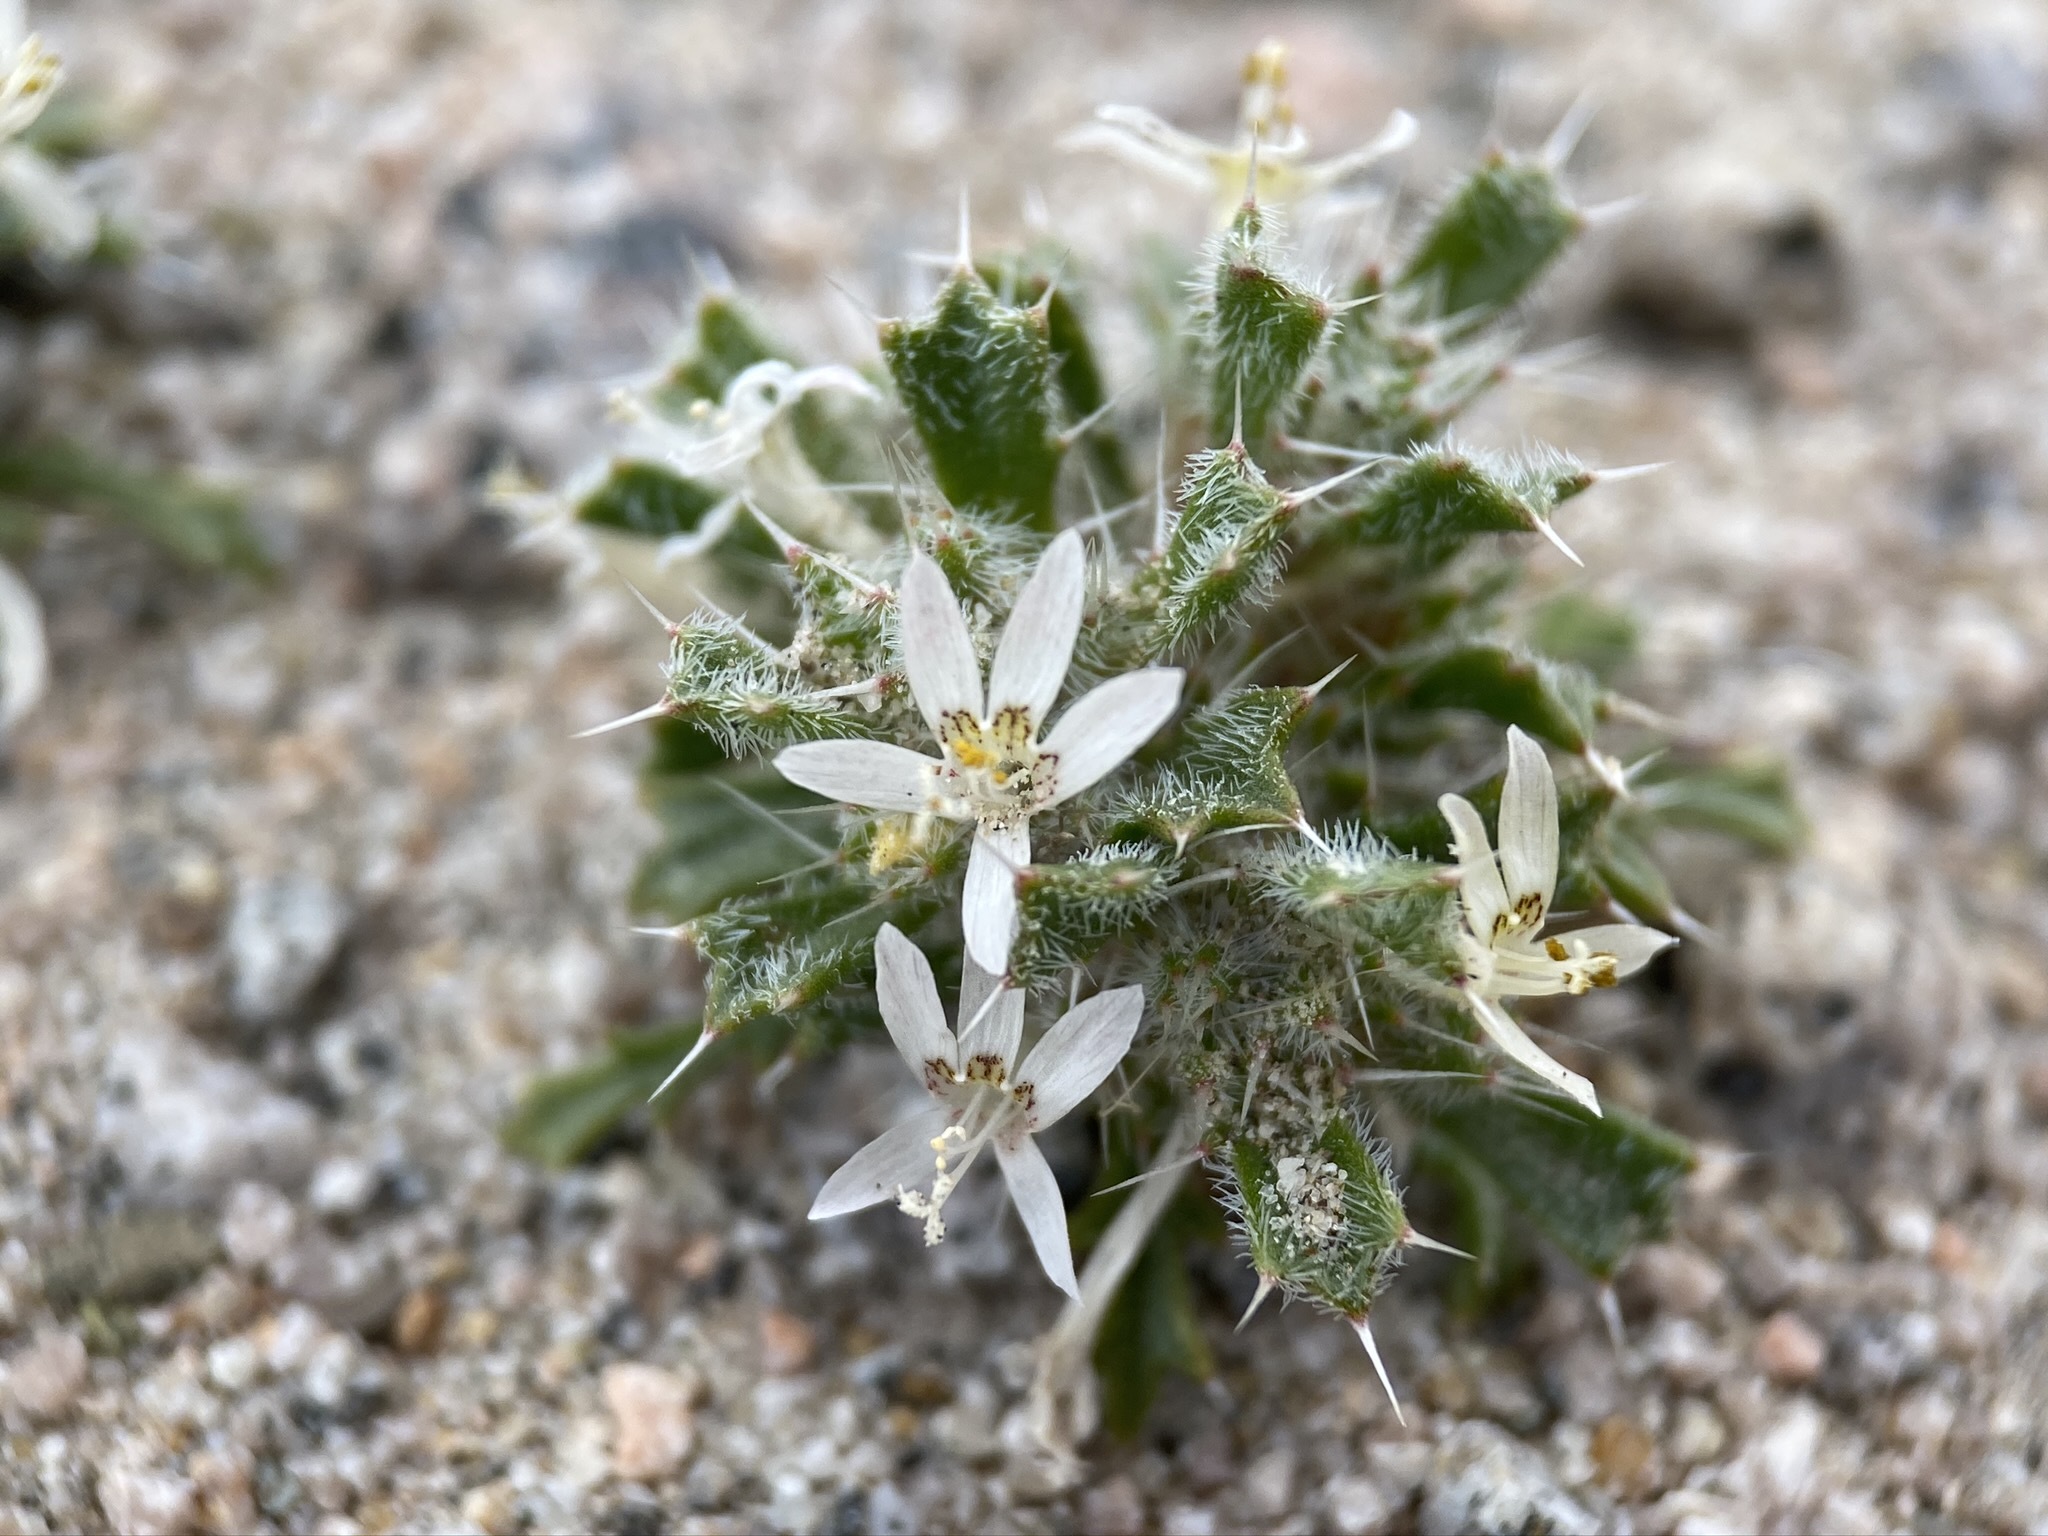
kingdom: Plantae
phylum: Tracheophyta
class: Magnoliopsida
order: Ericales
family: Polemoniaceae
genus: Loeseliastrum
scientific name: Loeseliastrum schottii
